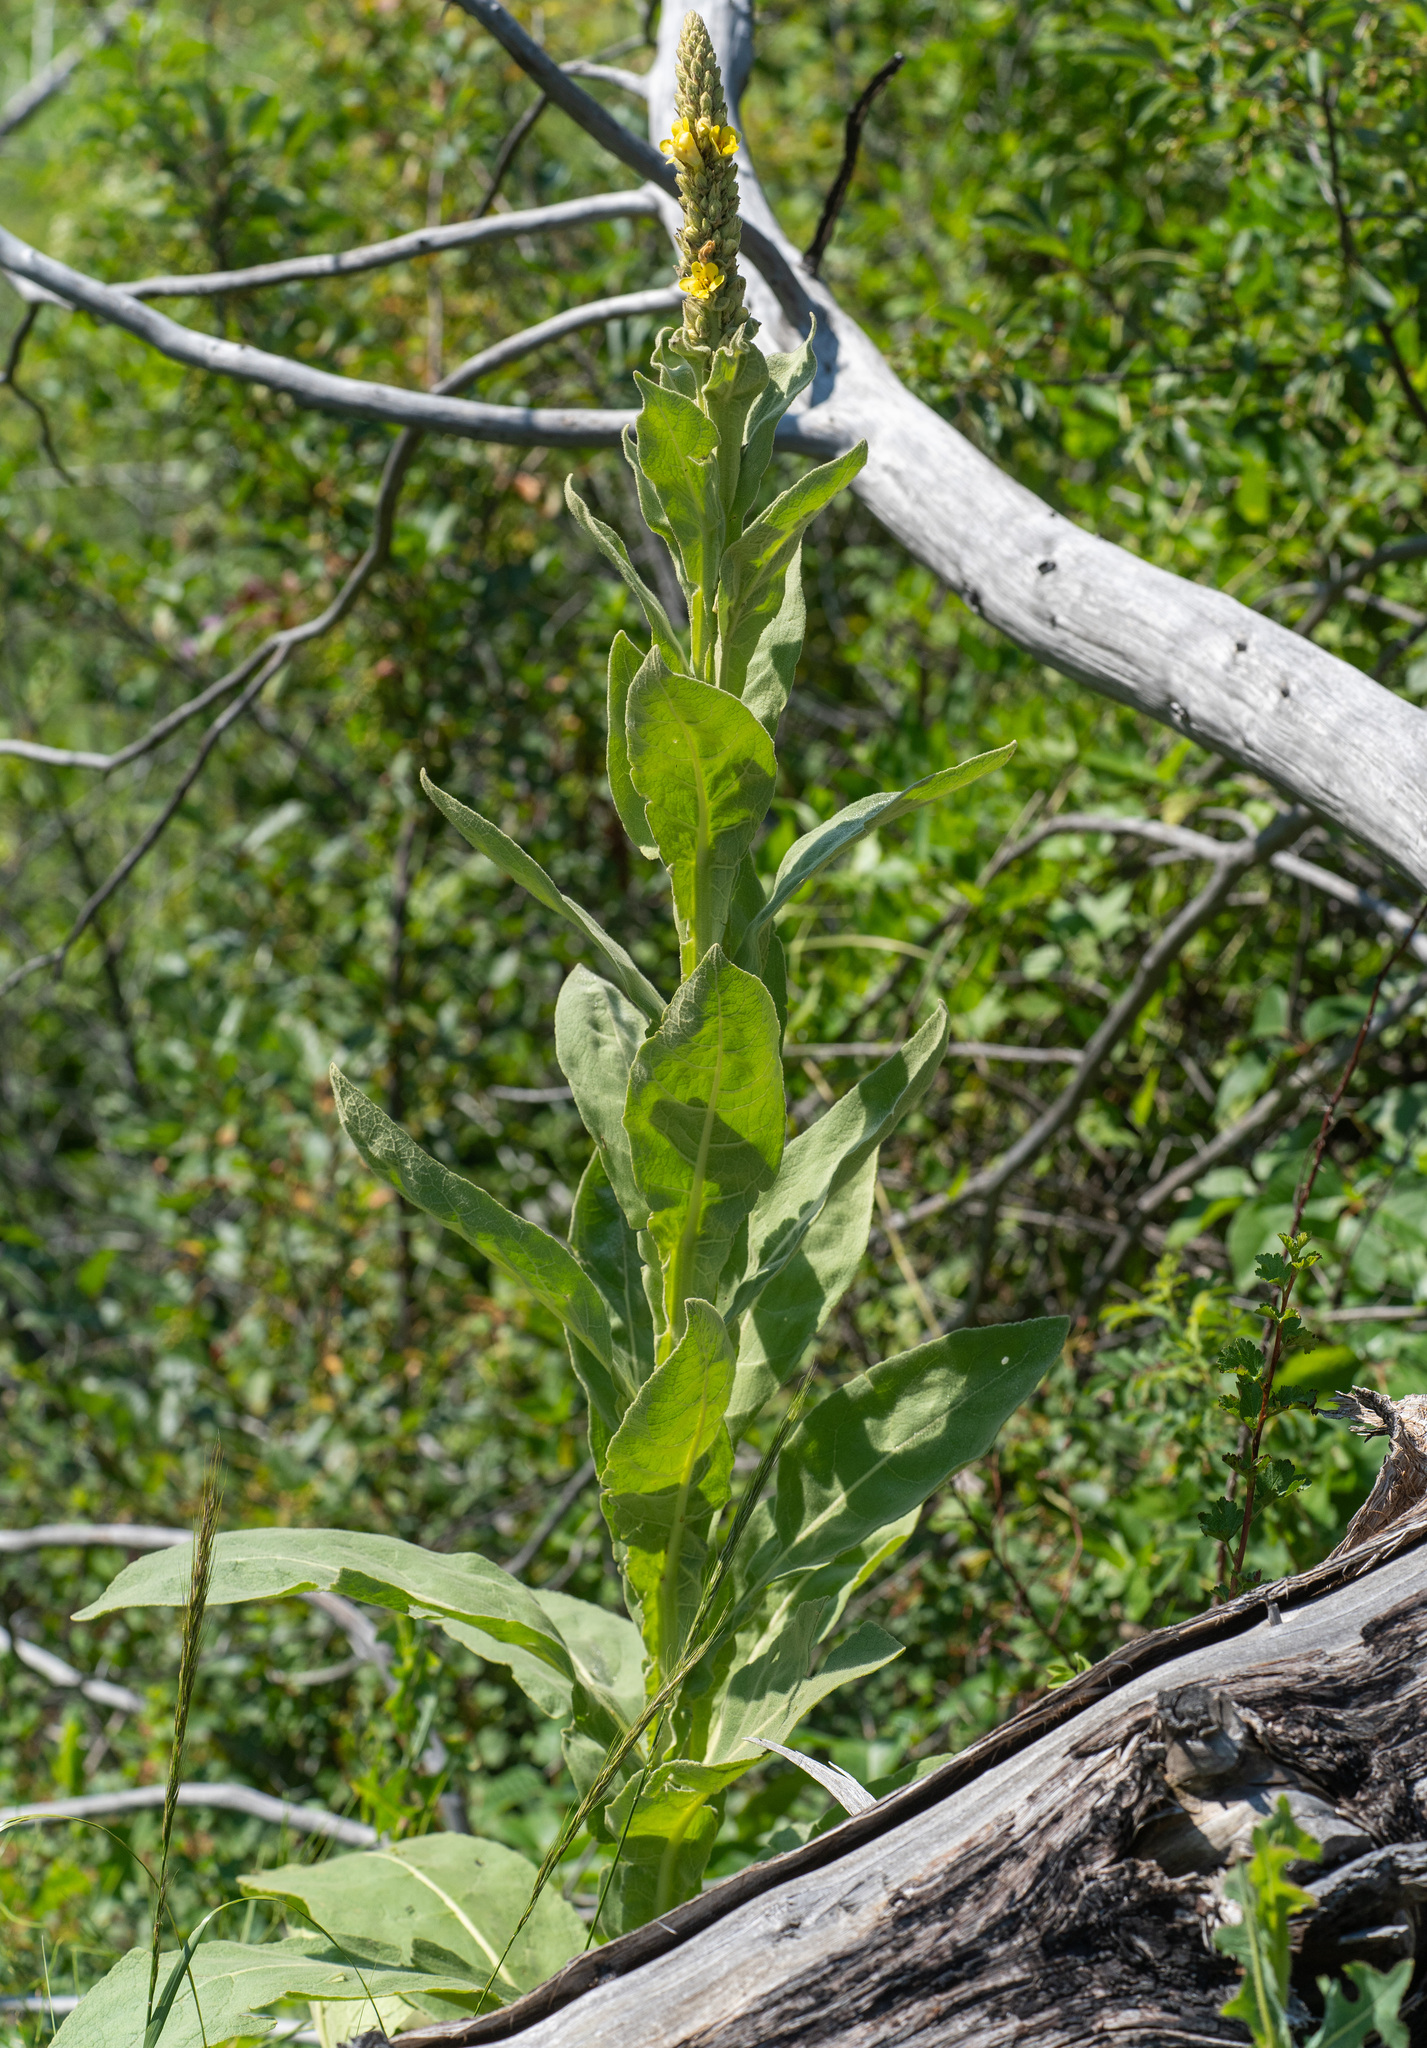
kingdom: Plantae
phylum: Tracheophyta
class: Magnoliopsida
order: Lamiales
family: Scrophulariaceae
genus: Verbascum
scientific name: Verbascum thapsus
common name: Common mullein
